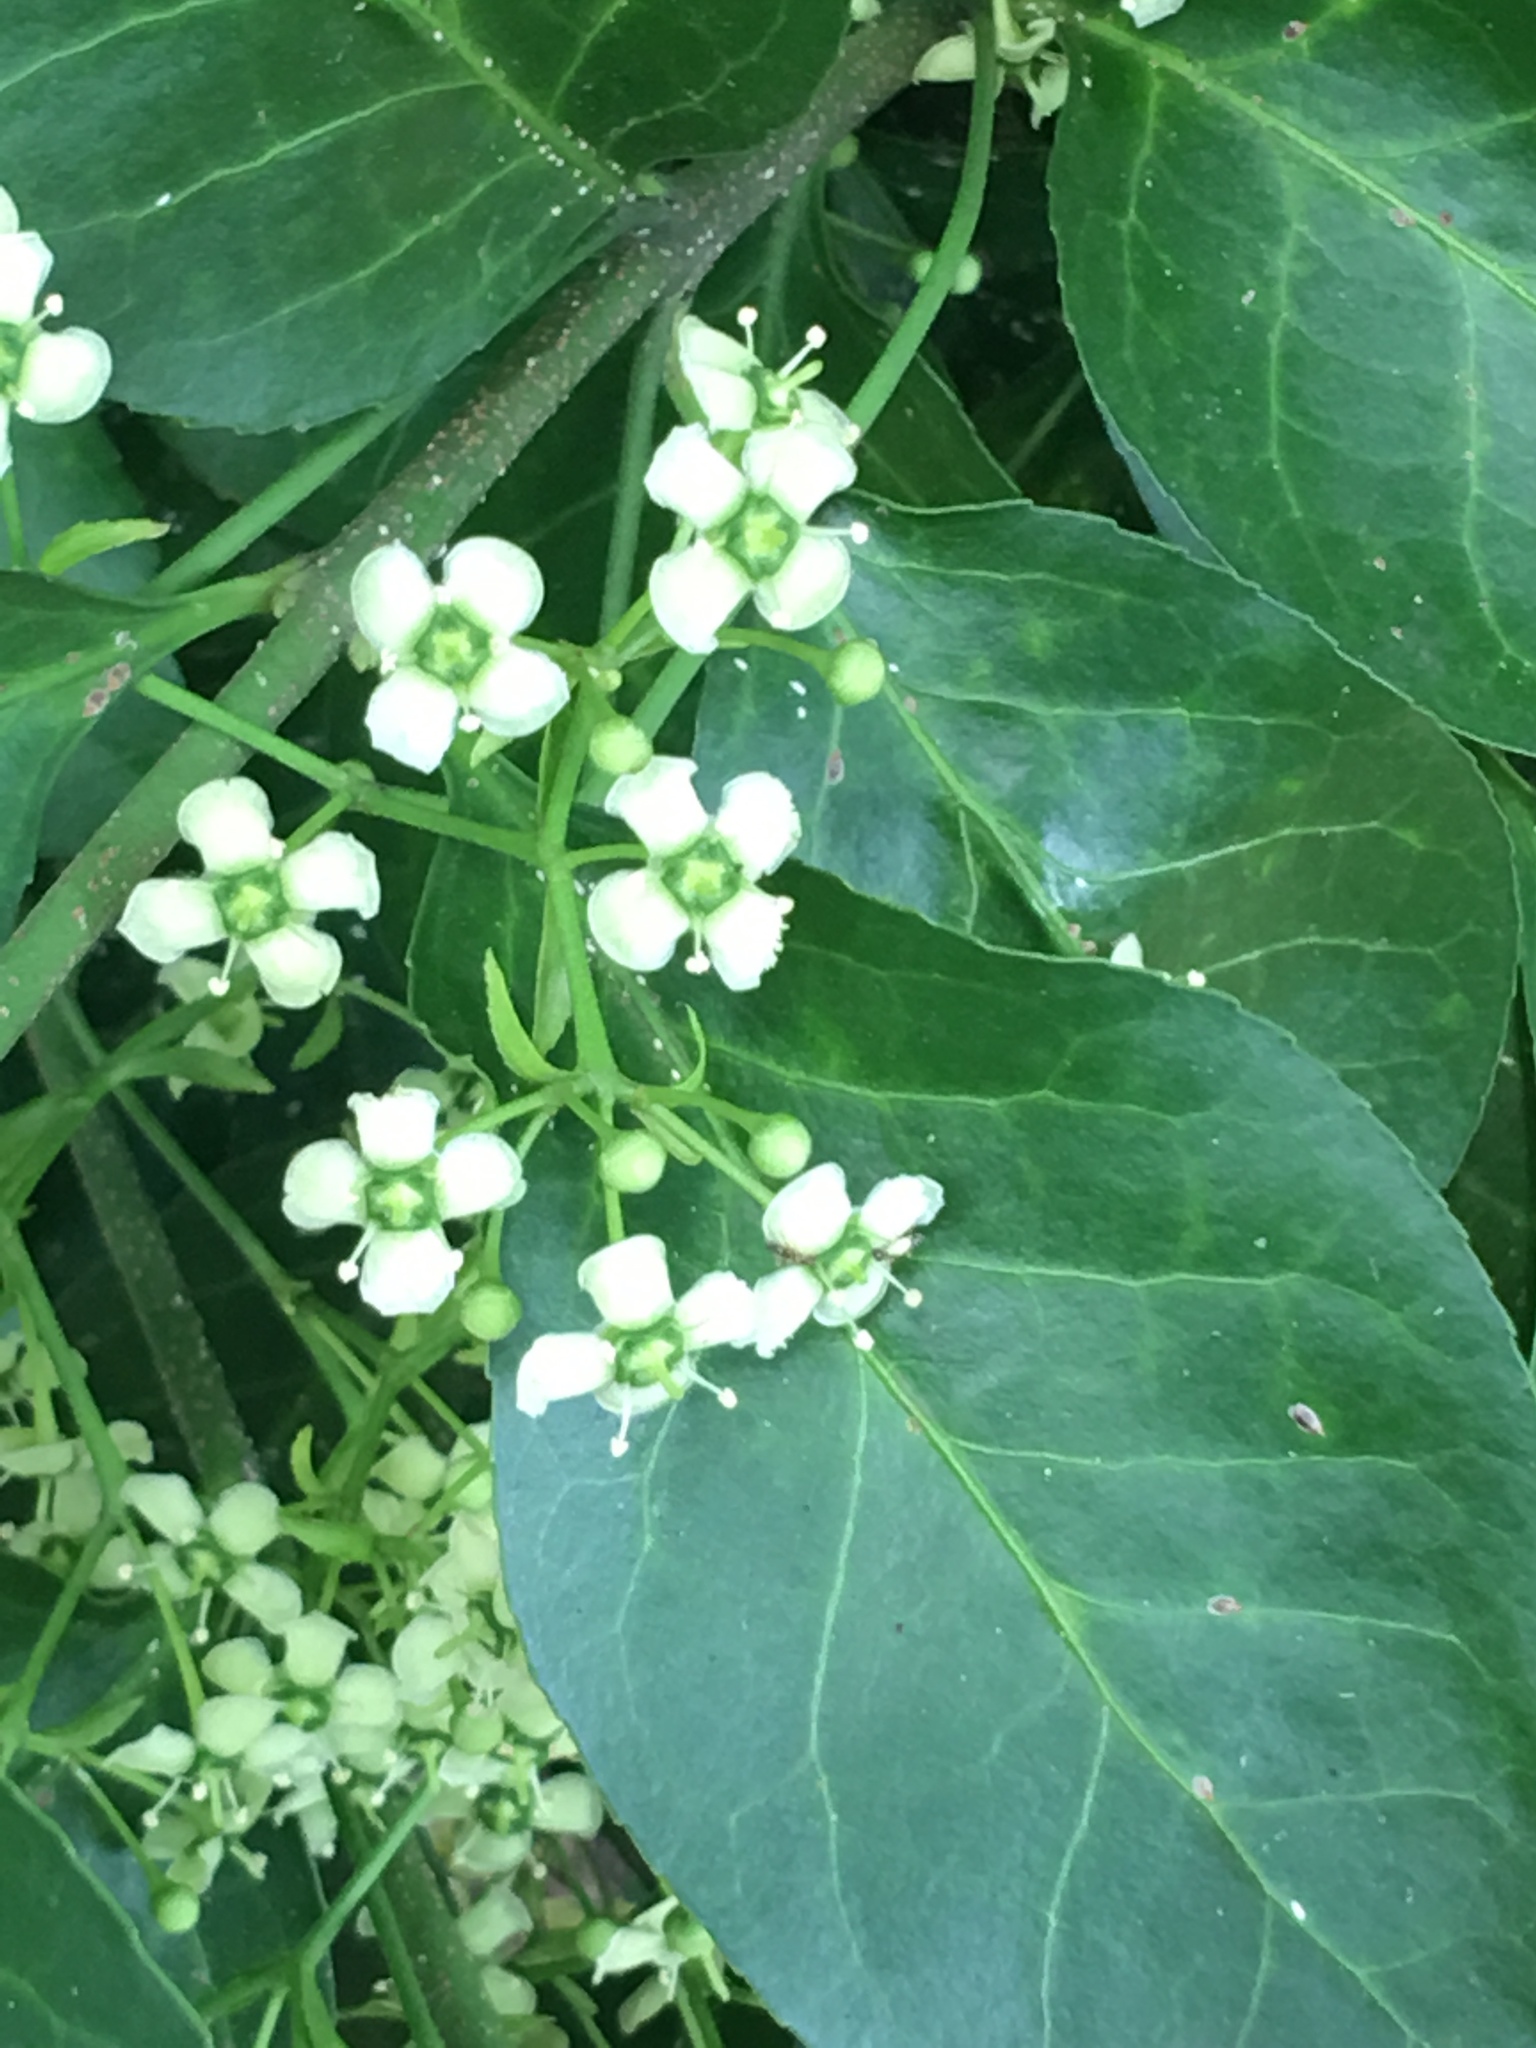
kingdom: Plantae
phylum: Tracheophyta
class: Magnoliopsida
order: Celastrales
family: Celastraceae
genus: Euonymus
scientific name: Euonymus fortunei
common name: Climbing euonymus
